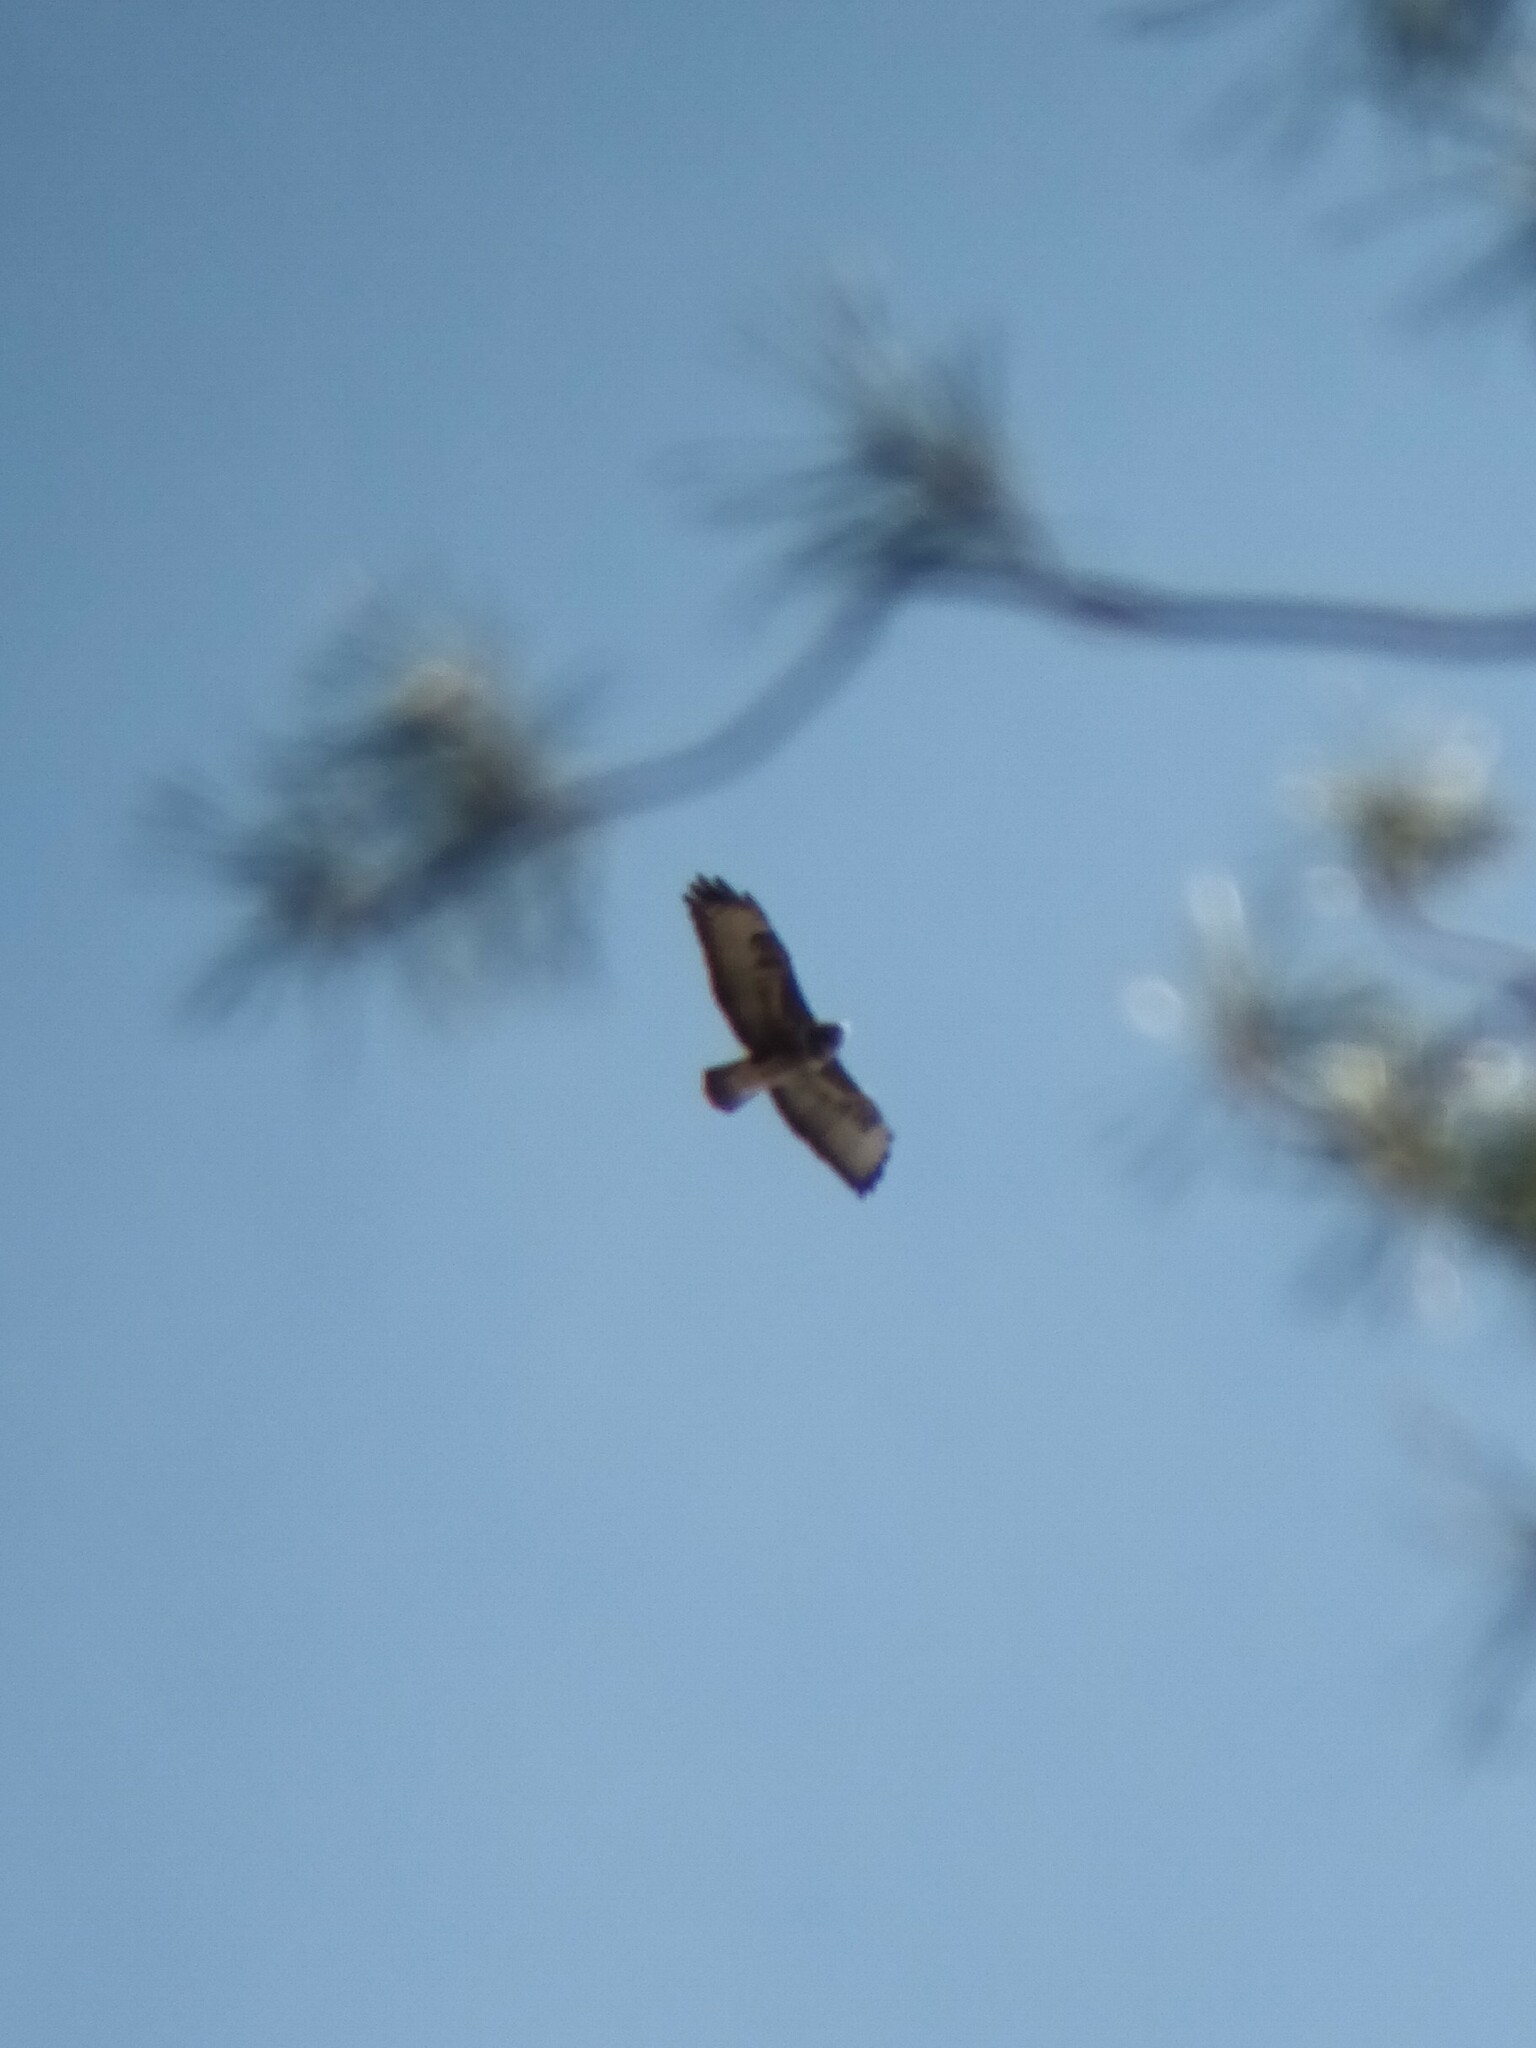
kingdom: Animalia
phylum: Chordata
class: Aves
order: Accipitriformes
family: Accipitridae
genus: Buteo
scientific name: Buteo buteo
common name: Common buzzard
